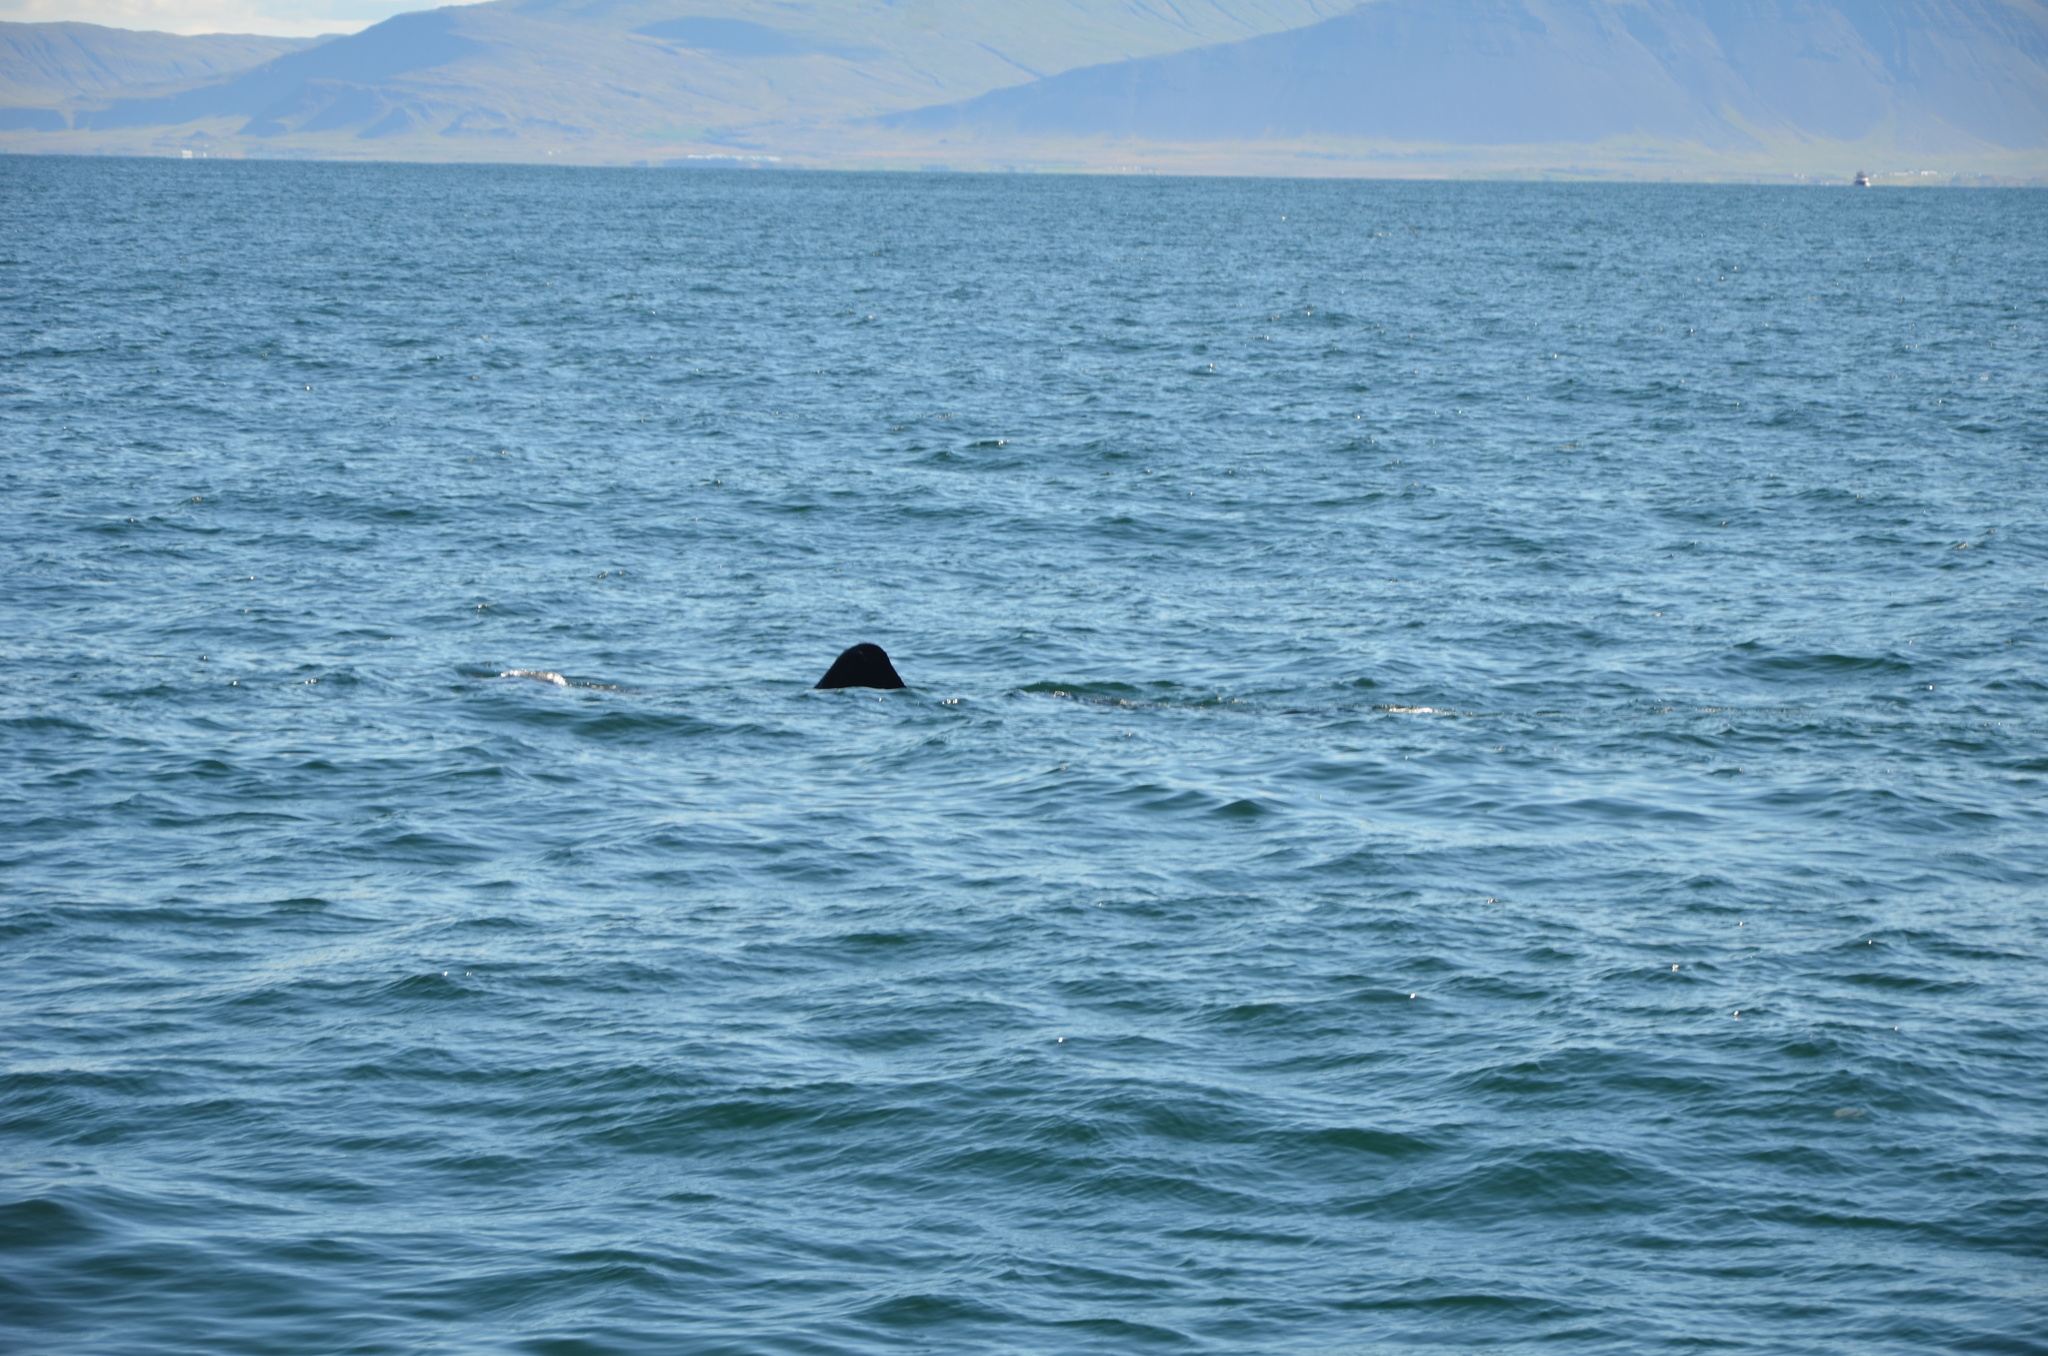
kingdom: Animalia
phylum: Chordata
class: Elasmobranchii
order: Lamniformes
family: Cetorhinidae
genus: Cetorhinus
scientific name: Cetorhinus maximus
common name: Basking shark
